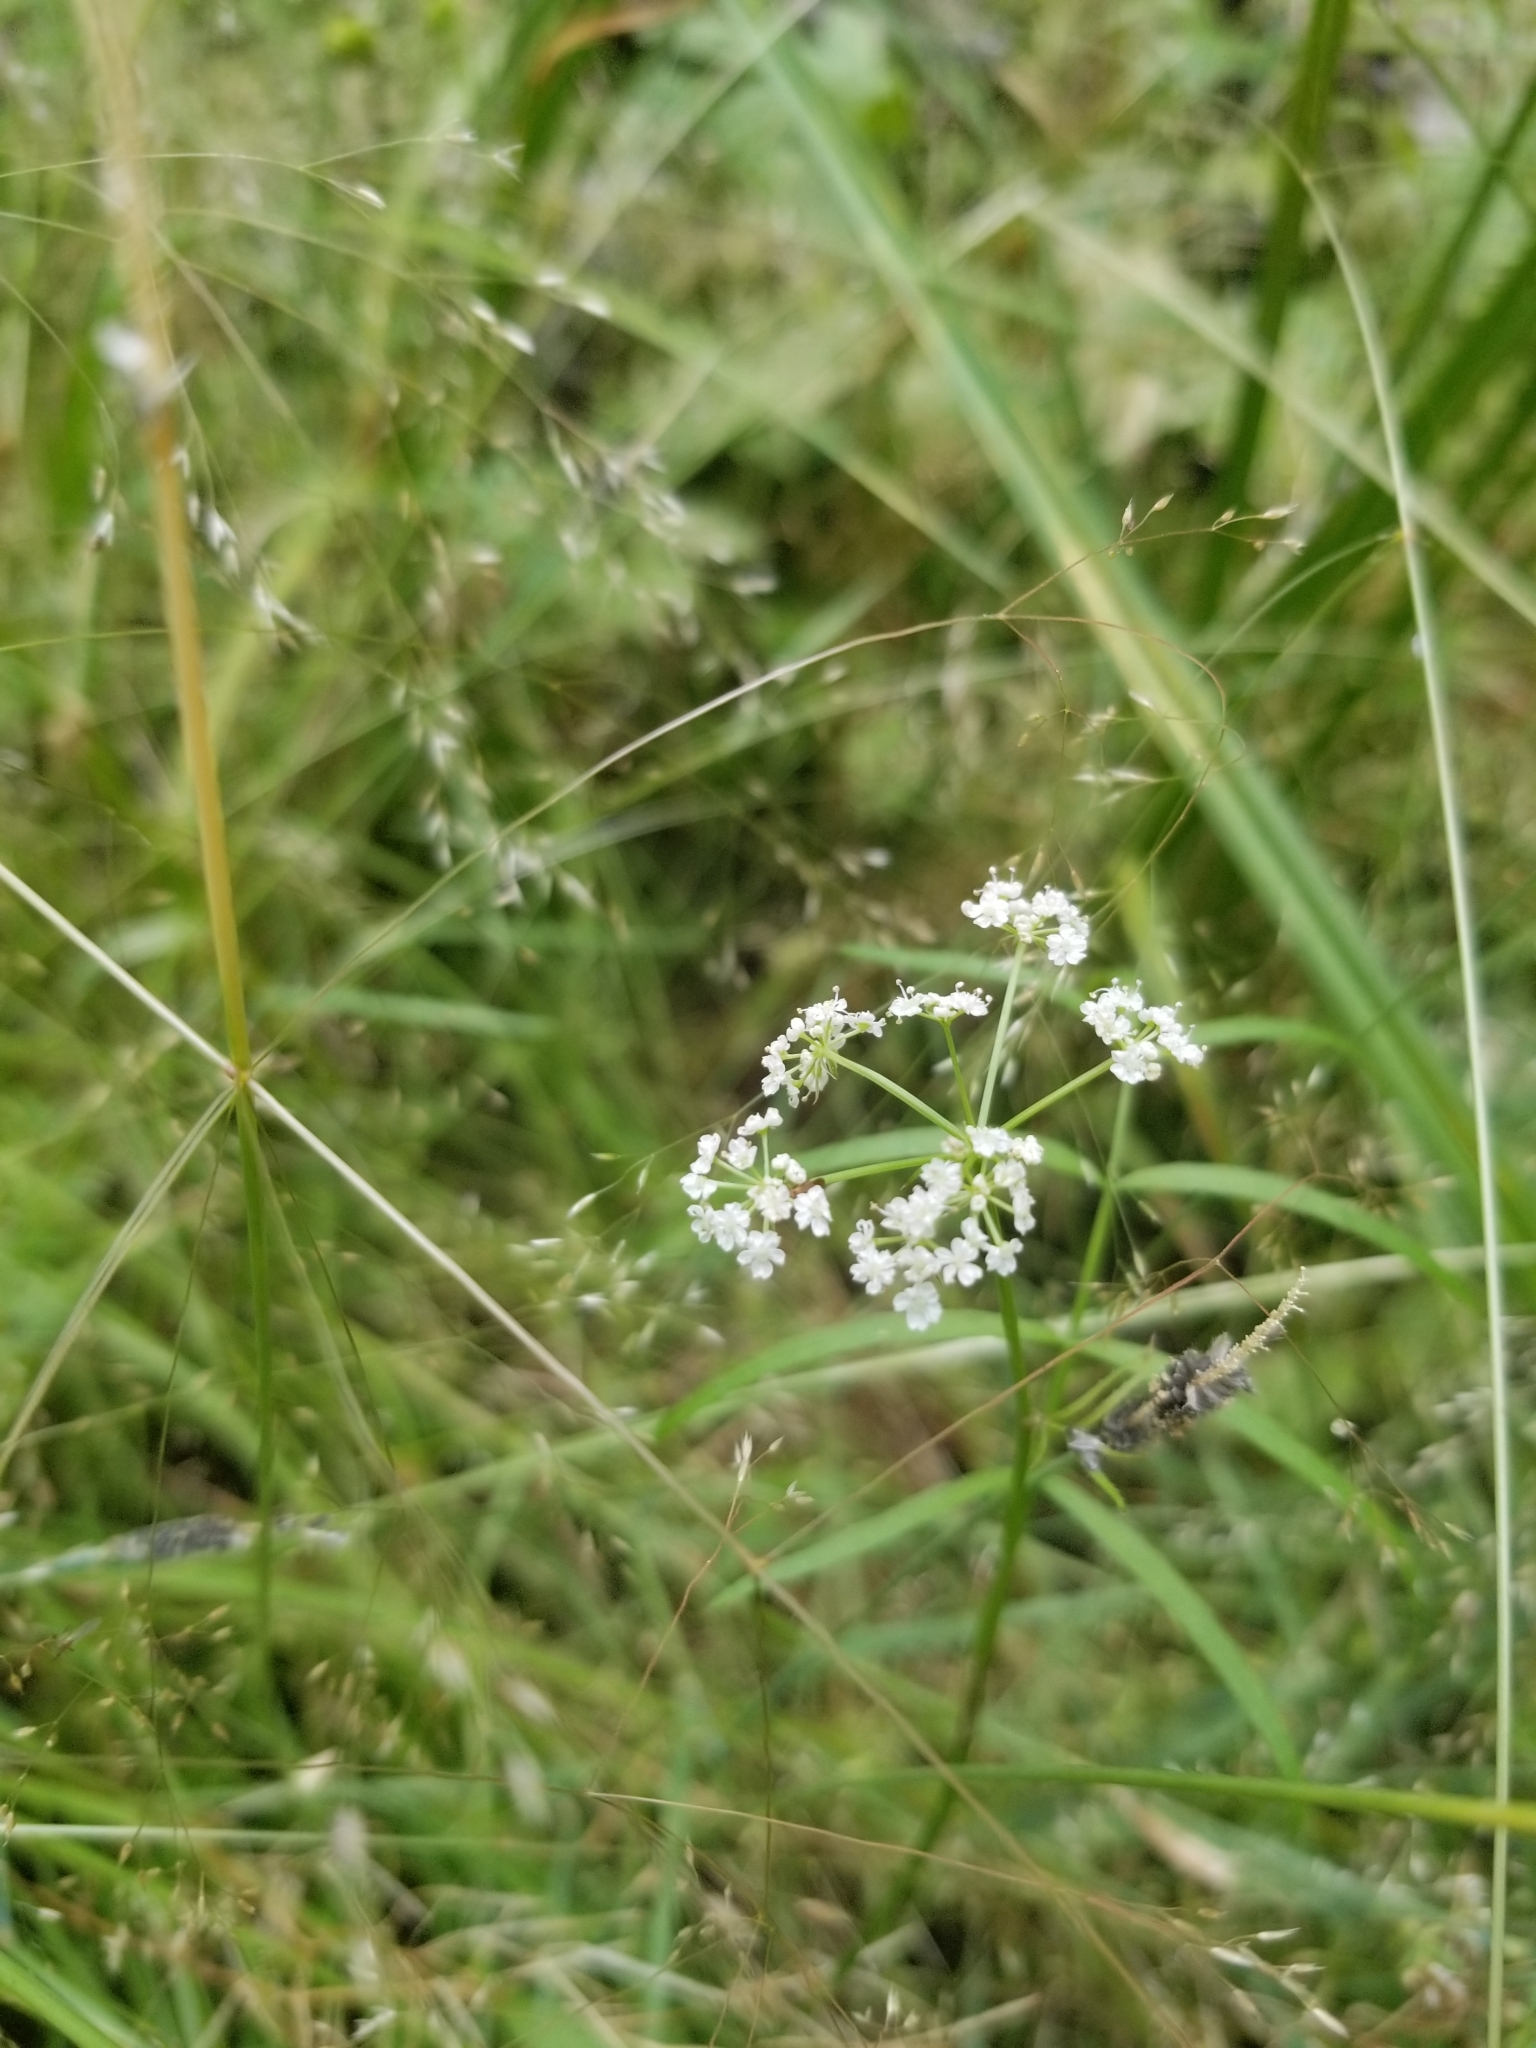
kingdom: Plantae
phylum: Tracheophyta
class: Magnoliopsida
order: Apiales
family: Apiaceae
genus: Sium
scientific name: Sium suave
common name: Hemlock water-parsnip
